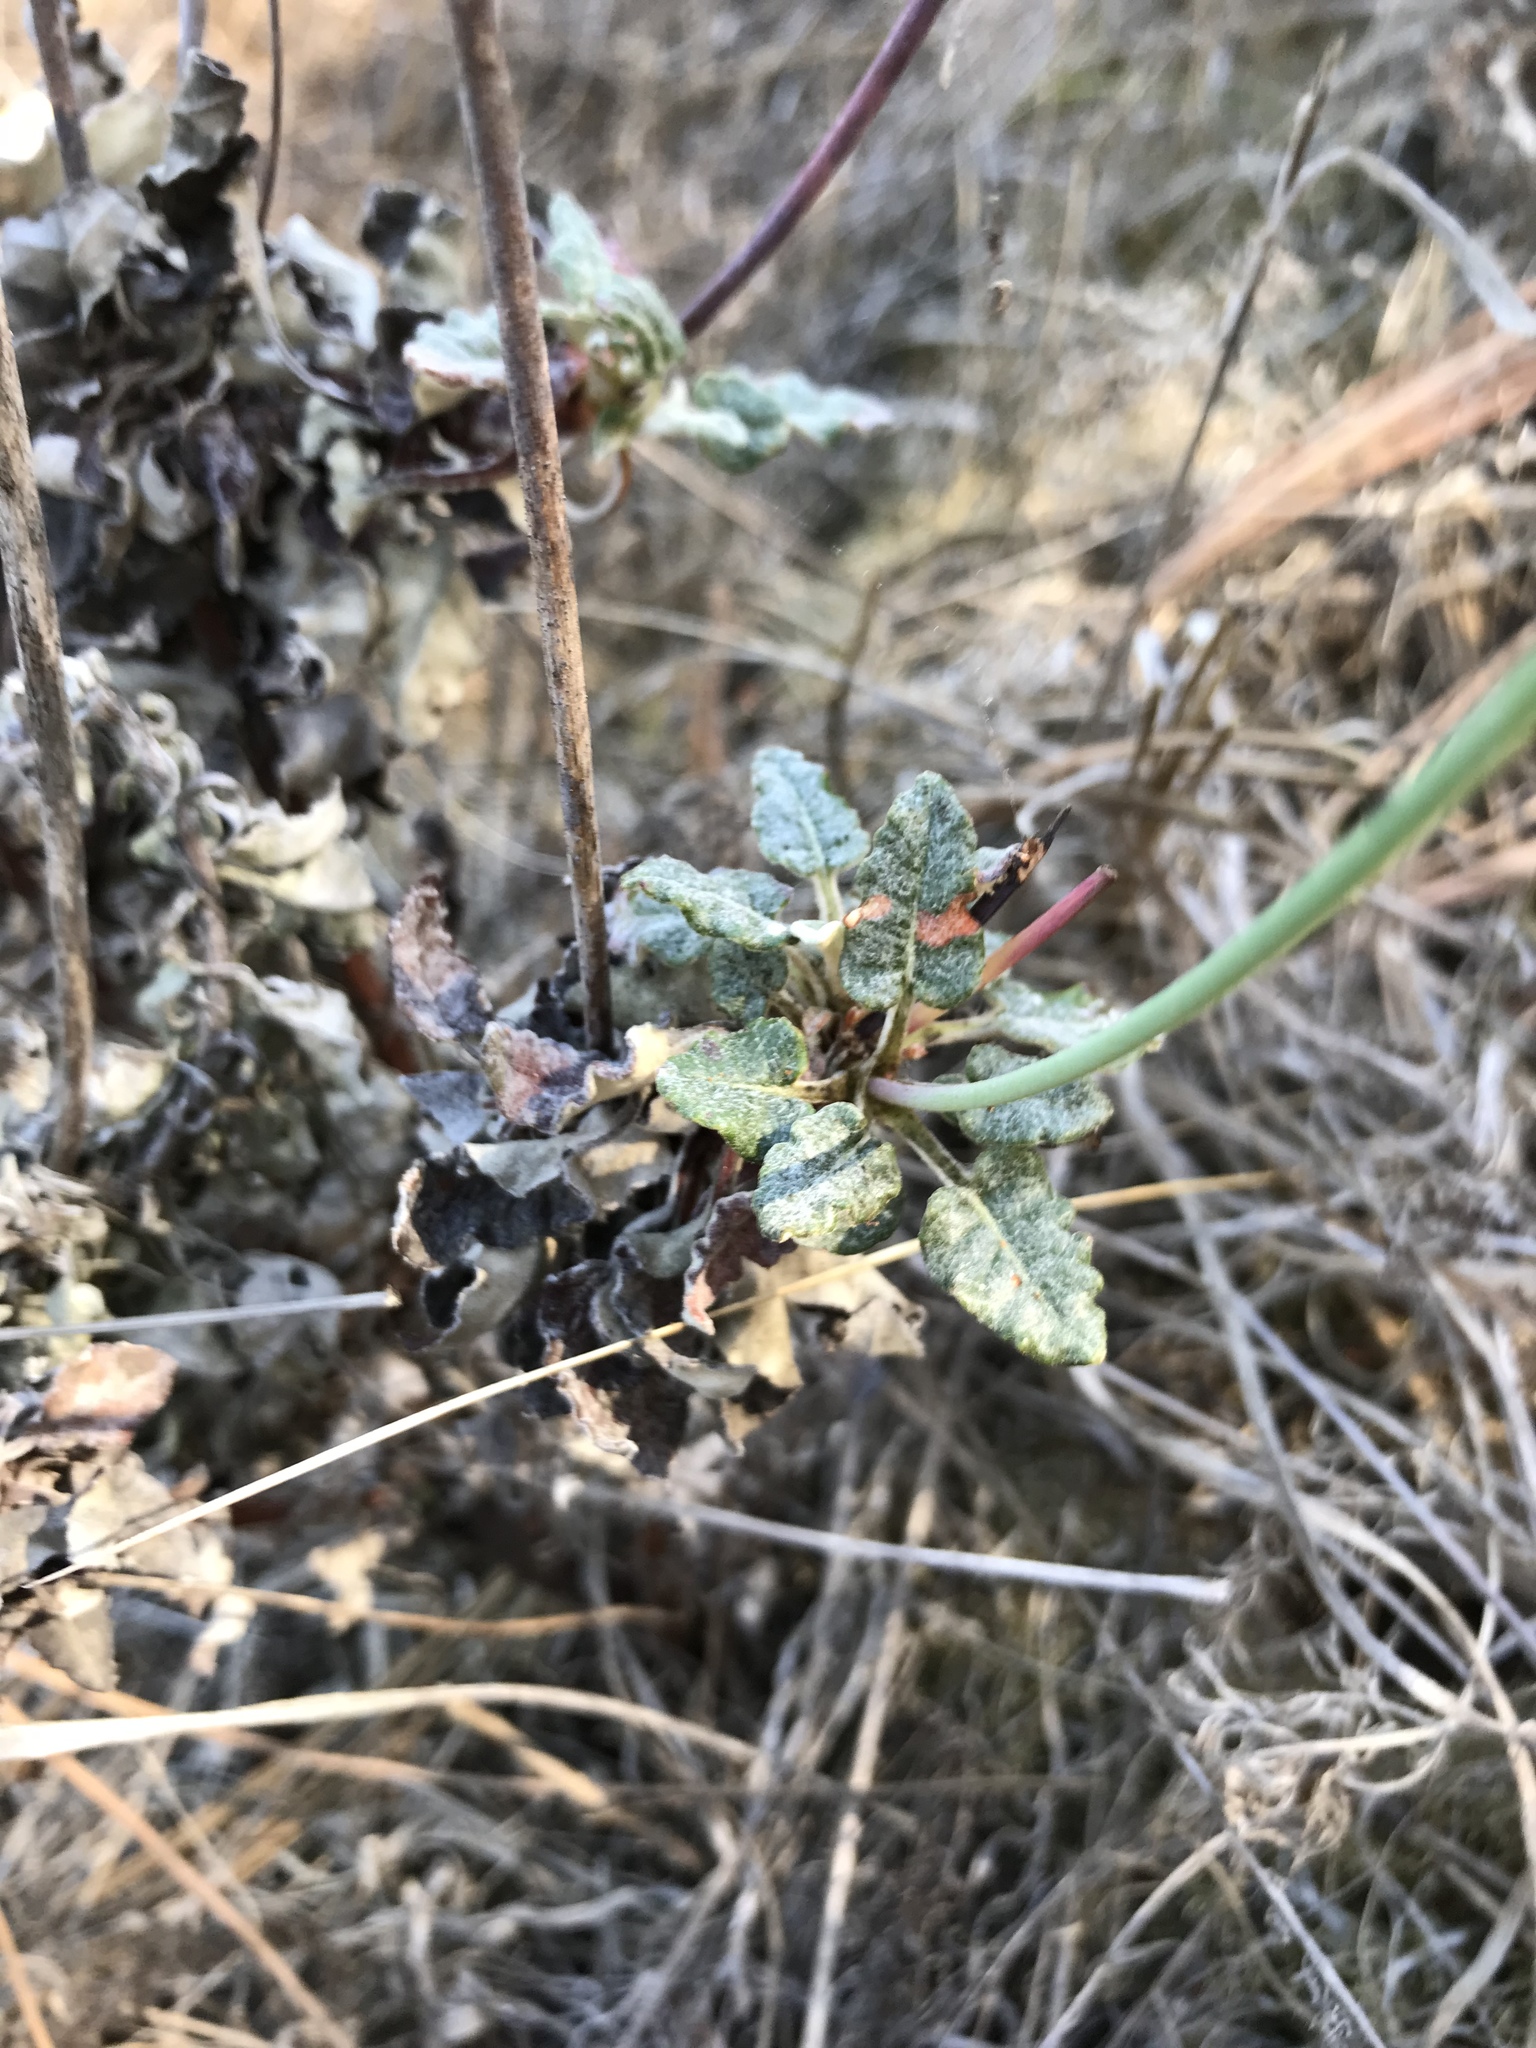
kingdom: Plantae
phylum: Tracheophyta
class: Magnoliopsida
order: Caryophyllales
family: Polygonaceae
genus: Eriogonum
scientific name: Eriogonum grande
